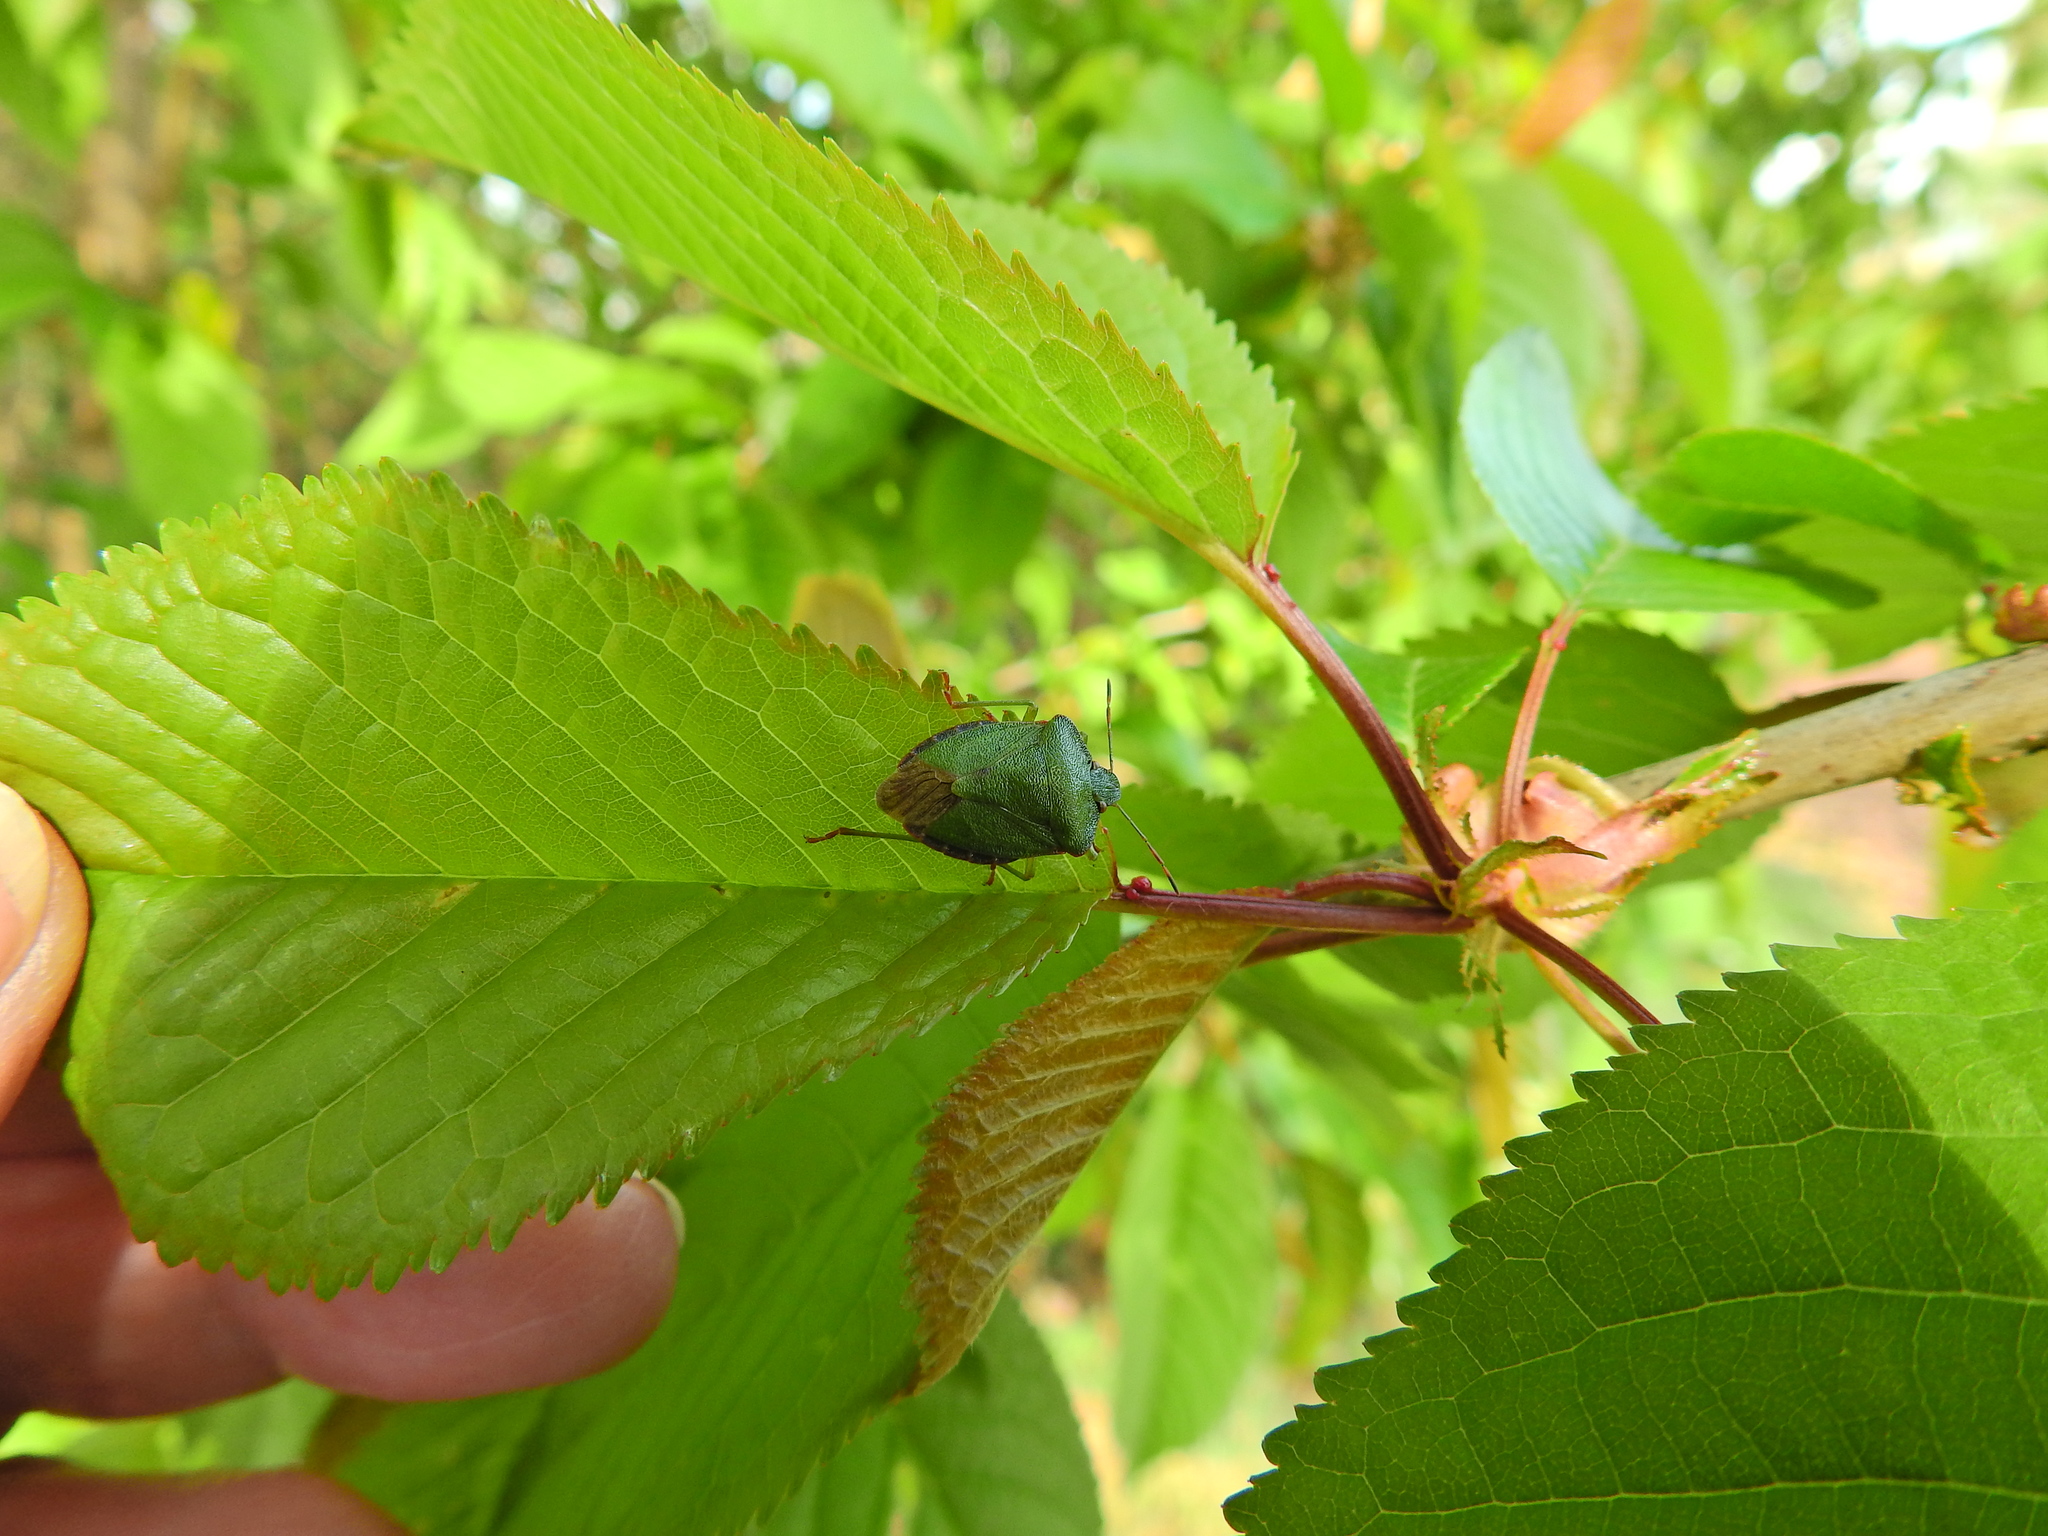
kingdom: Animalia
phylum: Arthropoda
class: Insecta
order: Hemiptera
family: Pentatomidae
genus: Palomena
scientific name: Palomena prasina
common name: Green shieldbug
